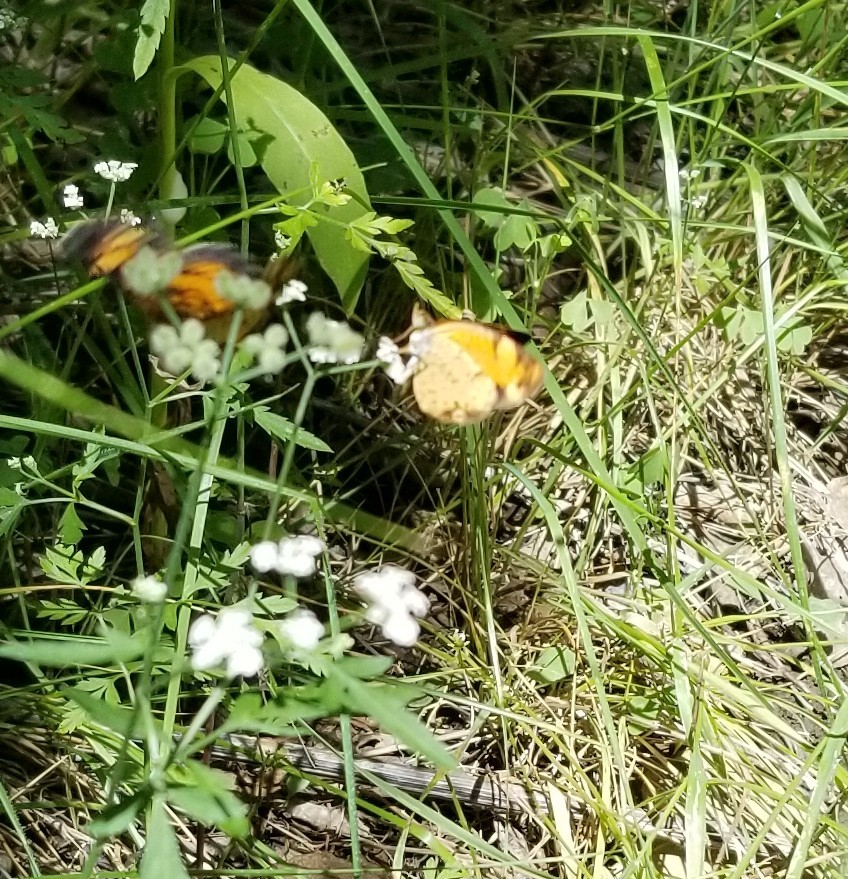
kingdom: Animalia
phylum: Arthropoda
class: Insecta
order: Lepidoptera
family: Nymphalidae
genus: Phyciodes
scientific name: Phyciodes tharos
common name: Pearl crescent
